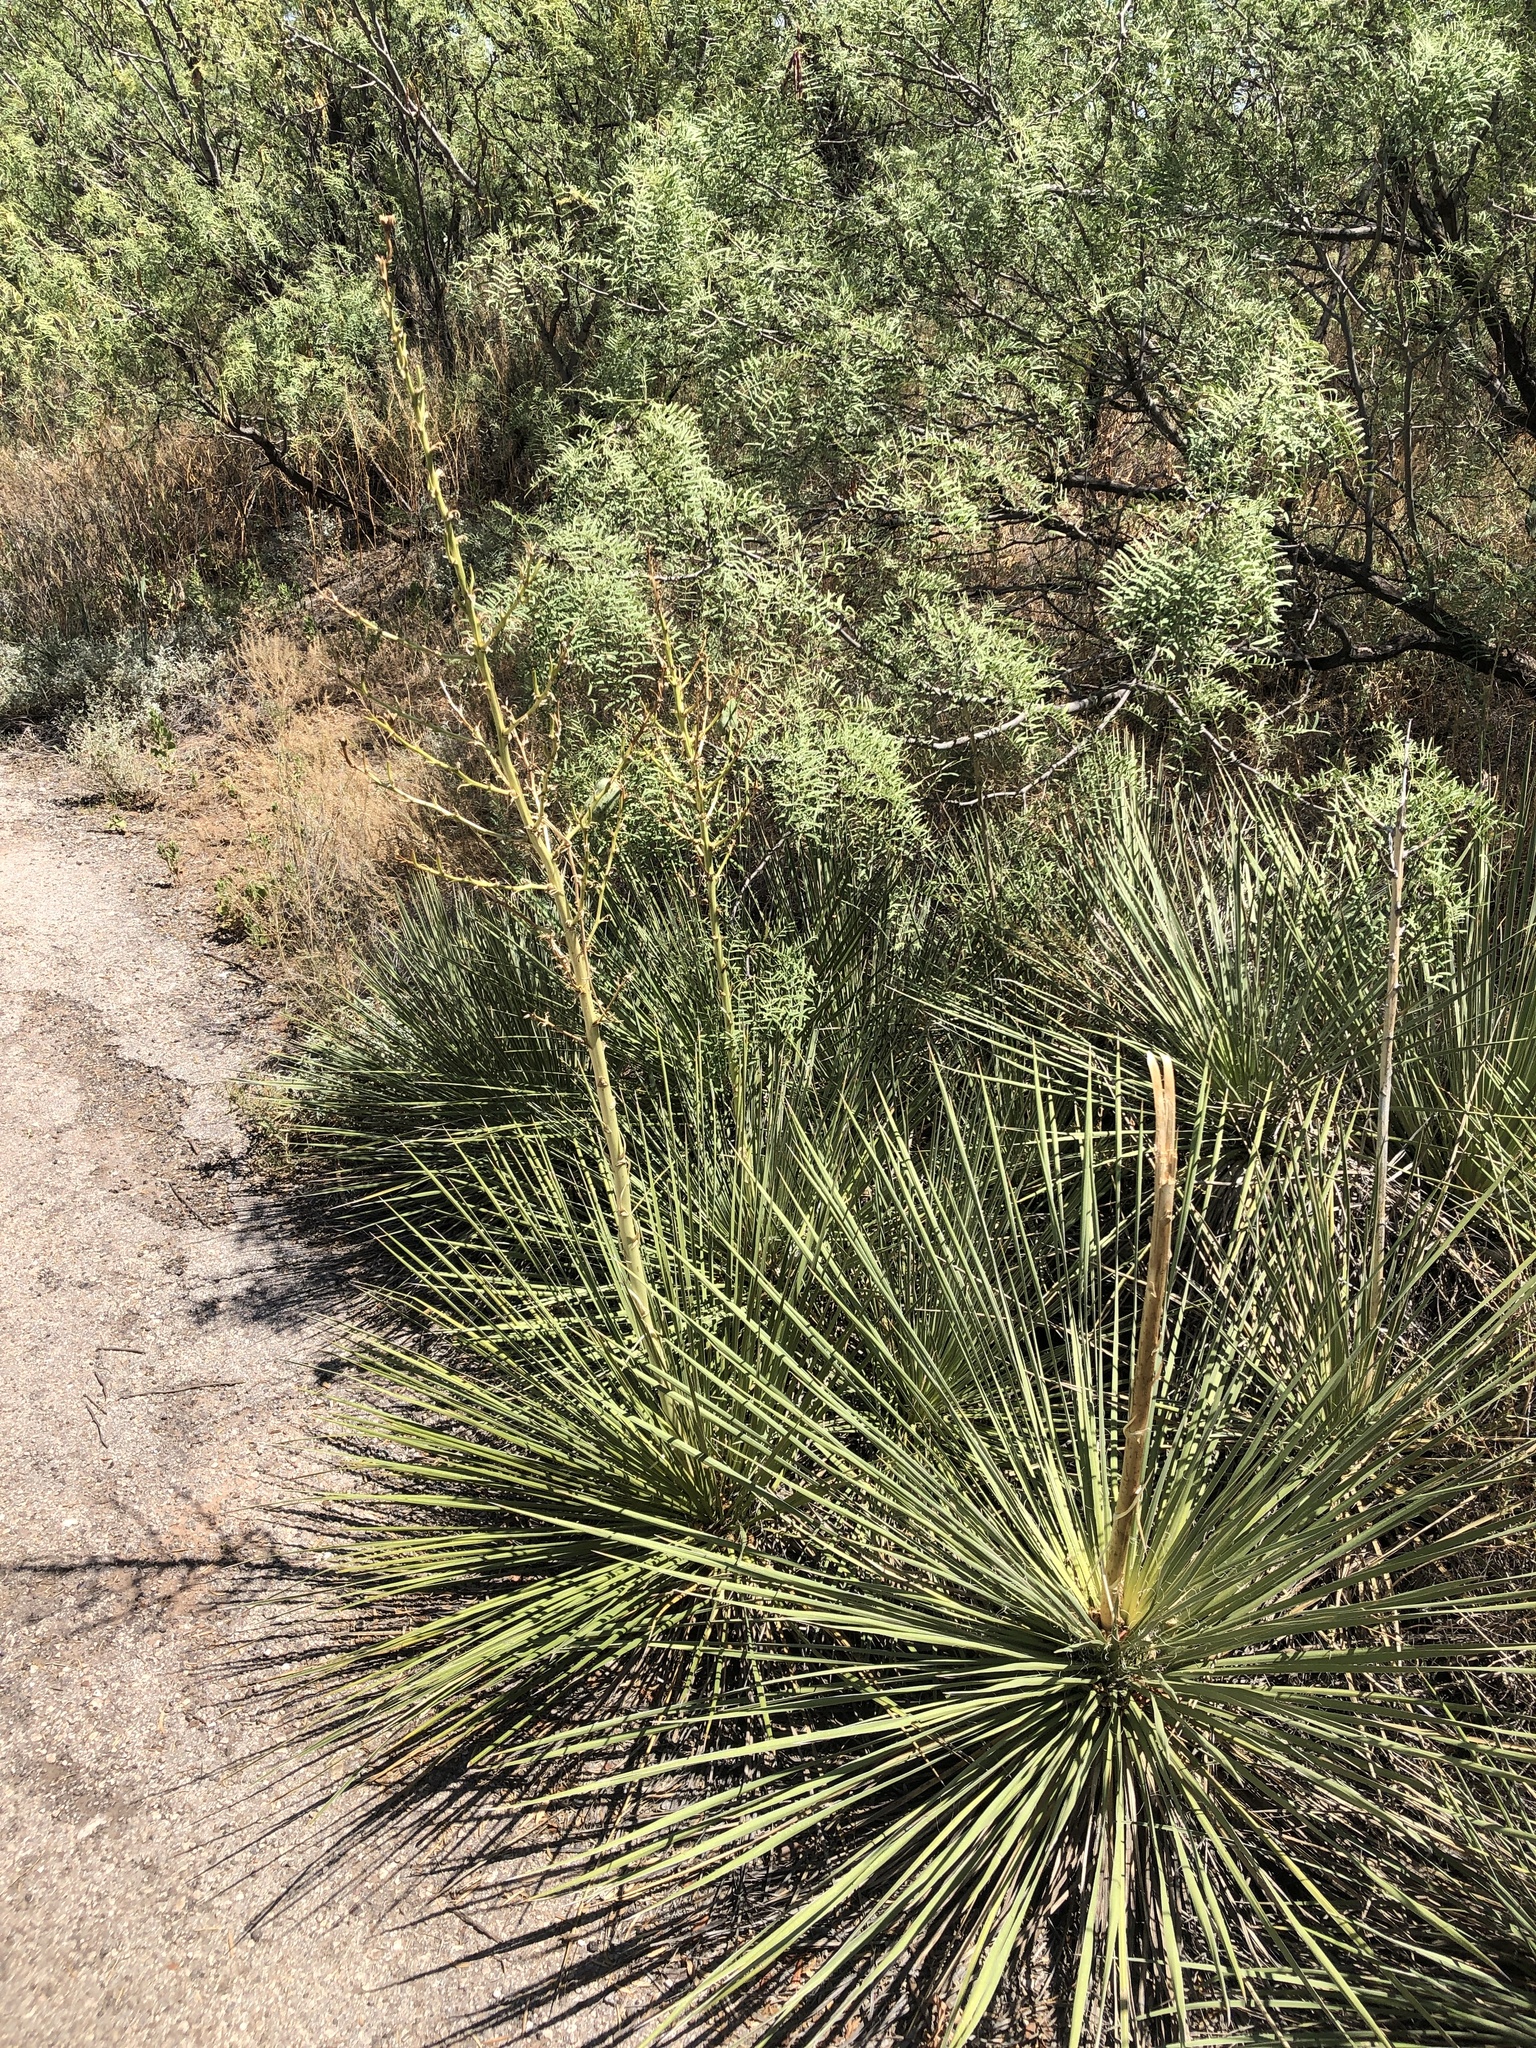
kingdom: Plantae
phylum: Tracheophyta
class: Liliopsida
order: Asparagales
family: Asparagaceae
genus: Yucca
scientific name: Yucca campestris
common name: Plains yucca
